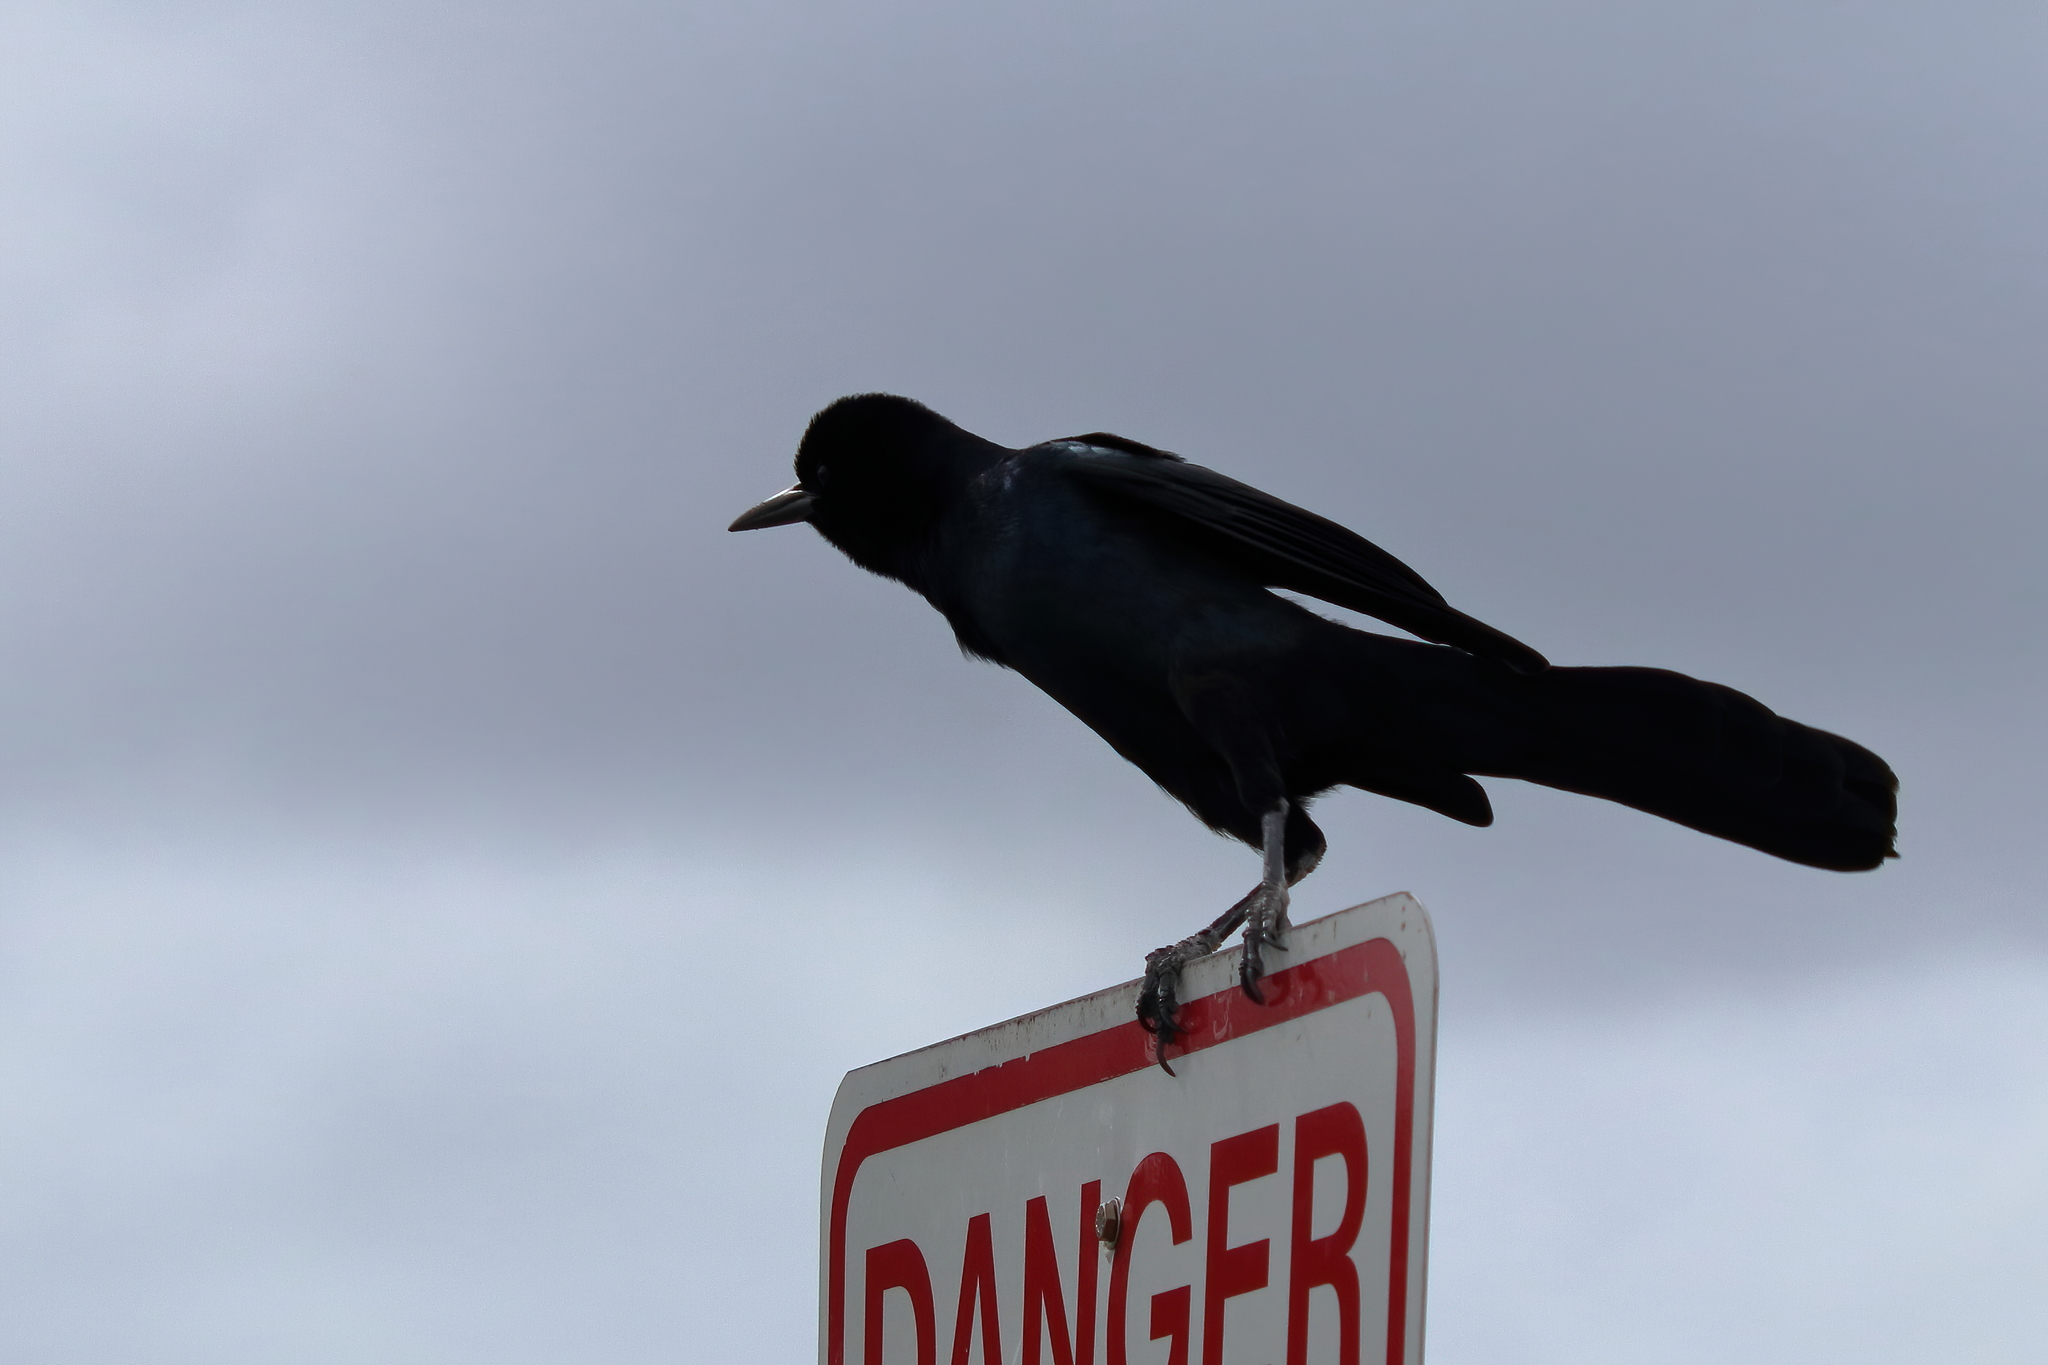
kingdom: Animalia
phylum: Chordata
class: Aves
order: Passeriformes
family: Icteridae
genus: Quiscalus
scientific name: Quiscalus major
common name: Boat-tailed grackle
